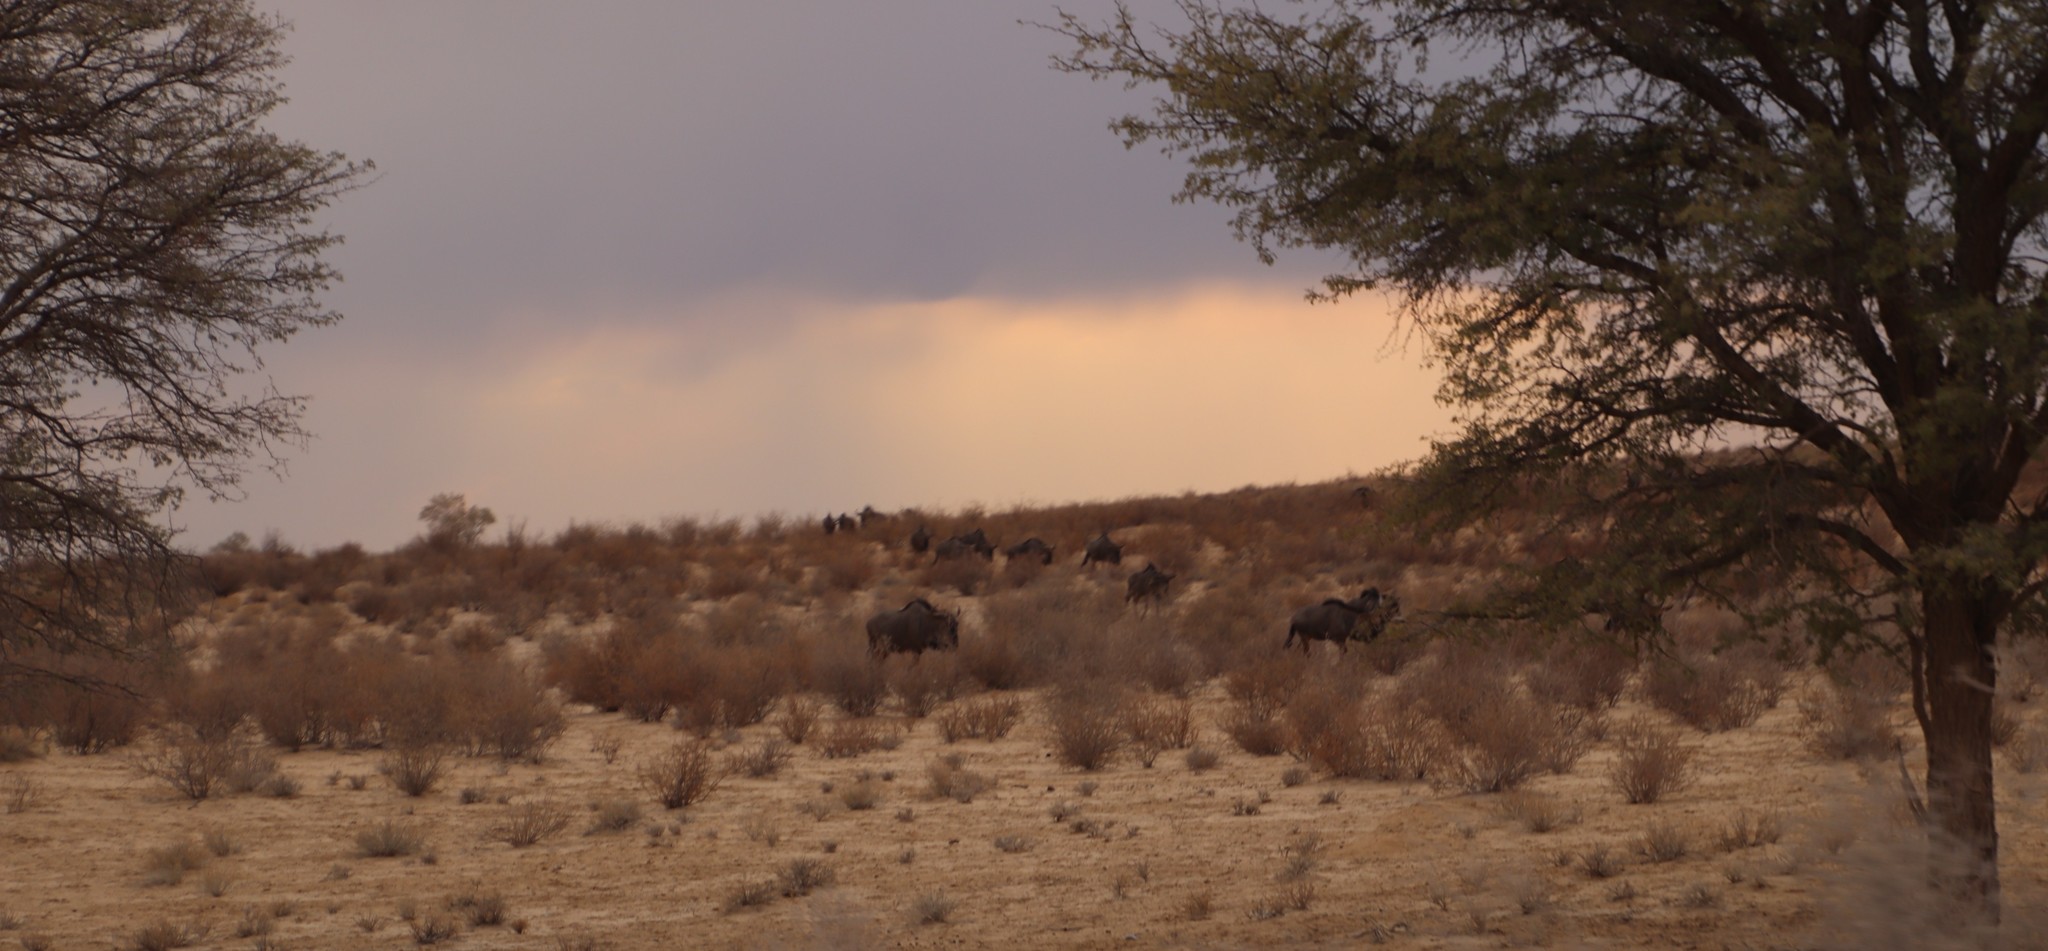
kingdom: Animalia
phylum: Chordata
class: Mammalia
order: Artiodactyla
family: Bovidae
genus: Connochaetes
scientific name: Connochaetes taurinus
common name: Blue wildebeest
